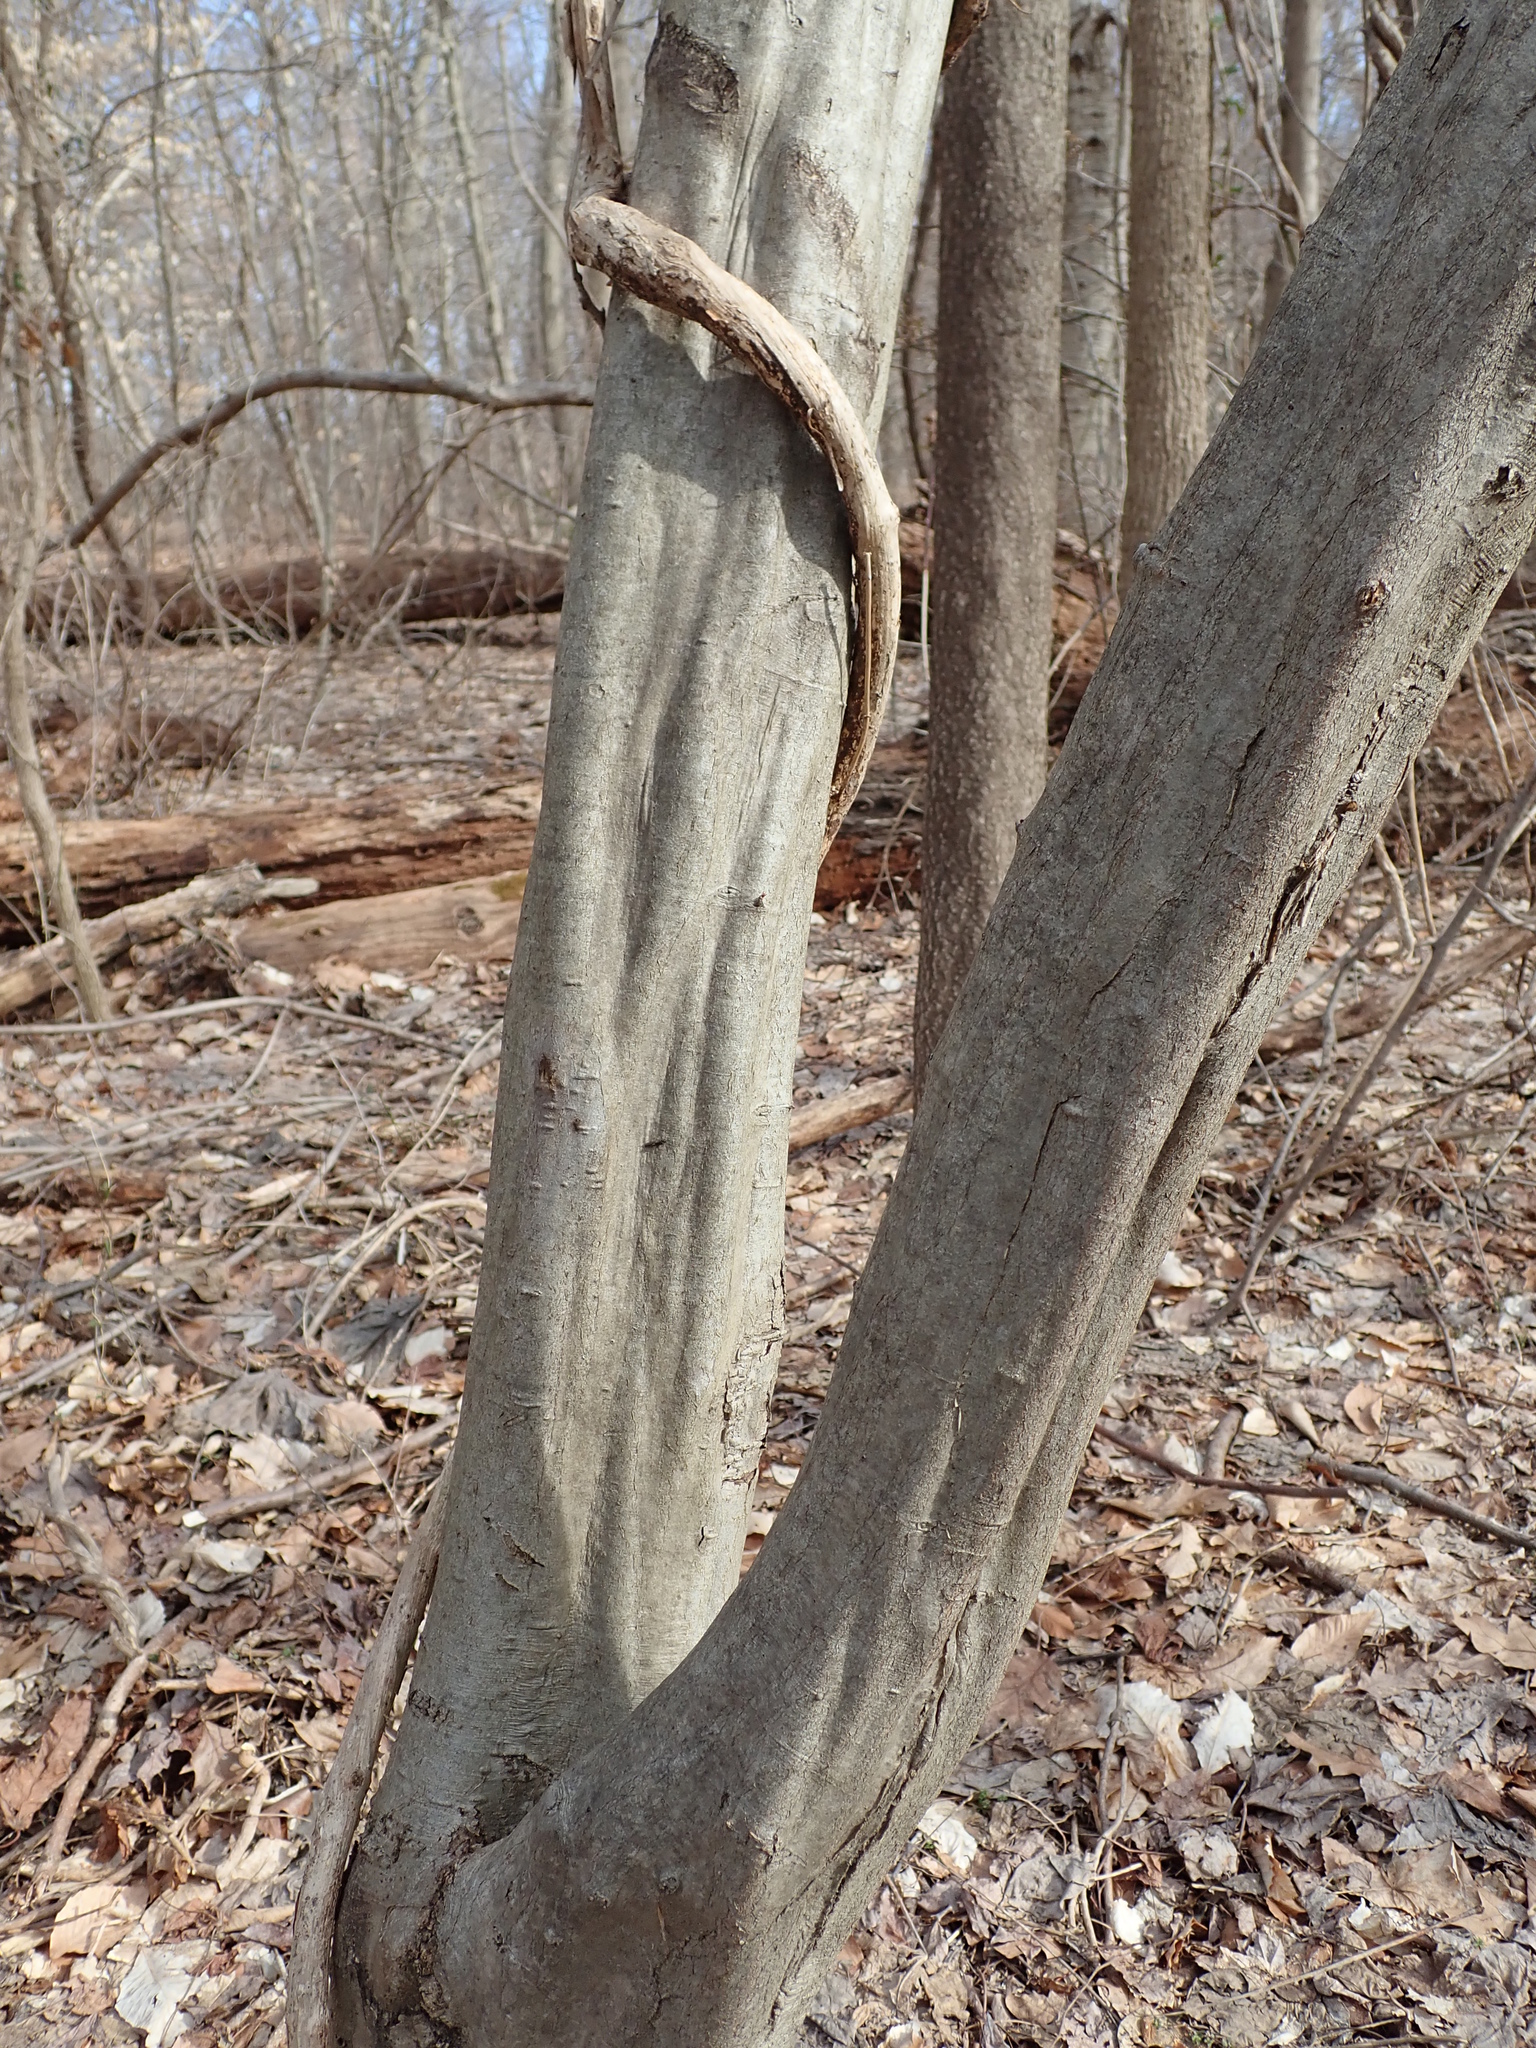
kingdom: Plantae
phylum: Tracheophyta
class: Magnoliopsida
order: Fagales
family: Betulaceae
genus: Carpinus
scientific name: Carpinus caroliniana
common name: American hornbeam
